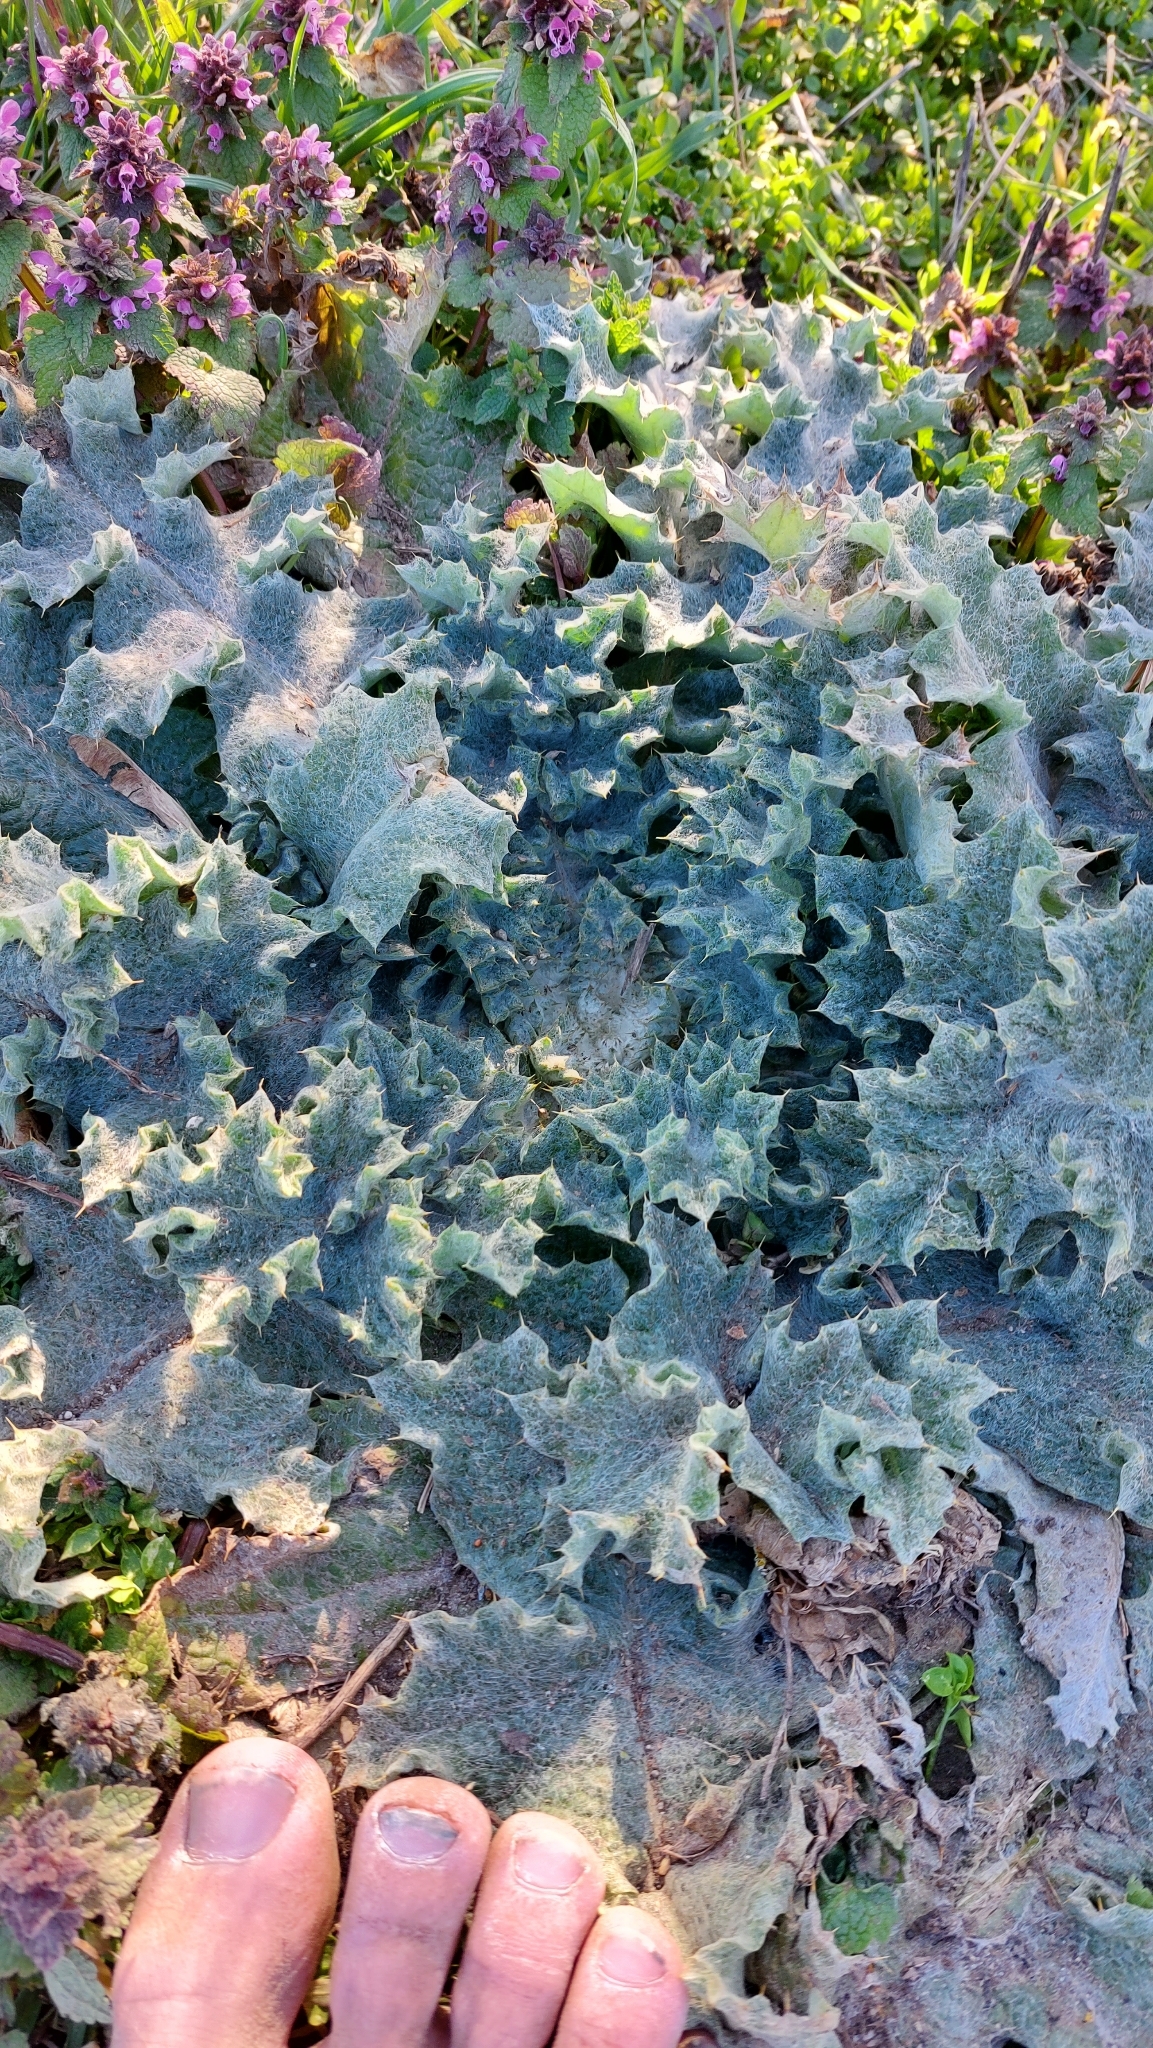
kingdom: Plantae
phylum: Tracheophyta
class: Magnoliopsida
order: Asterales
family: Asteraceae
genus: Onopordum
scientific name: Onopordum acanthium
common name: Scotch thistle
